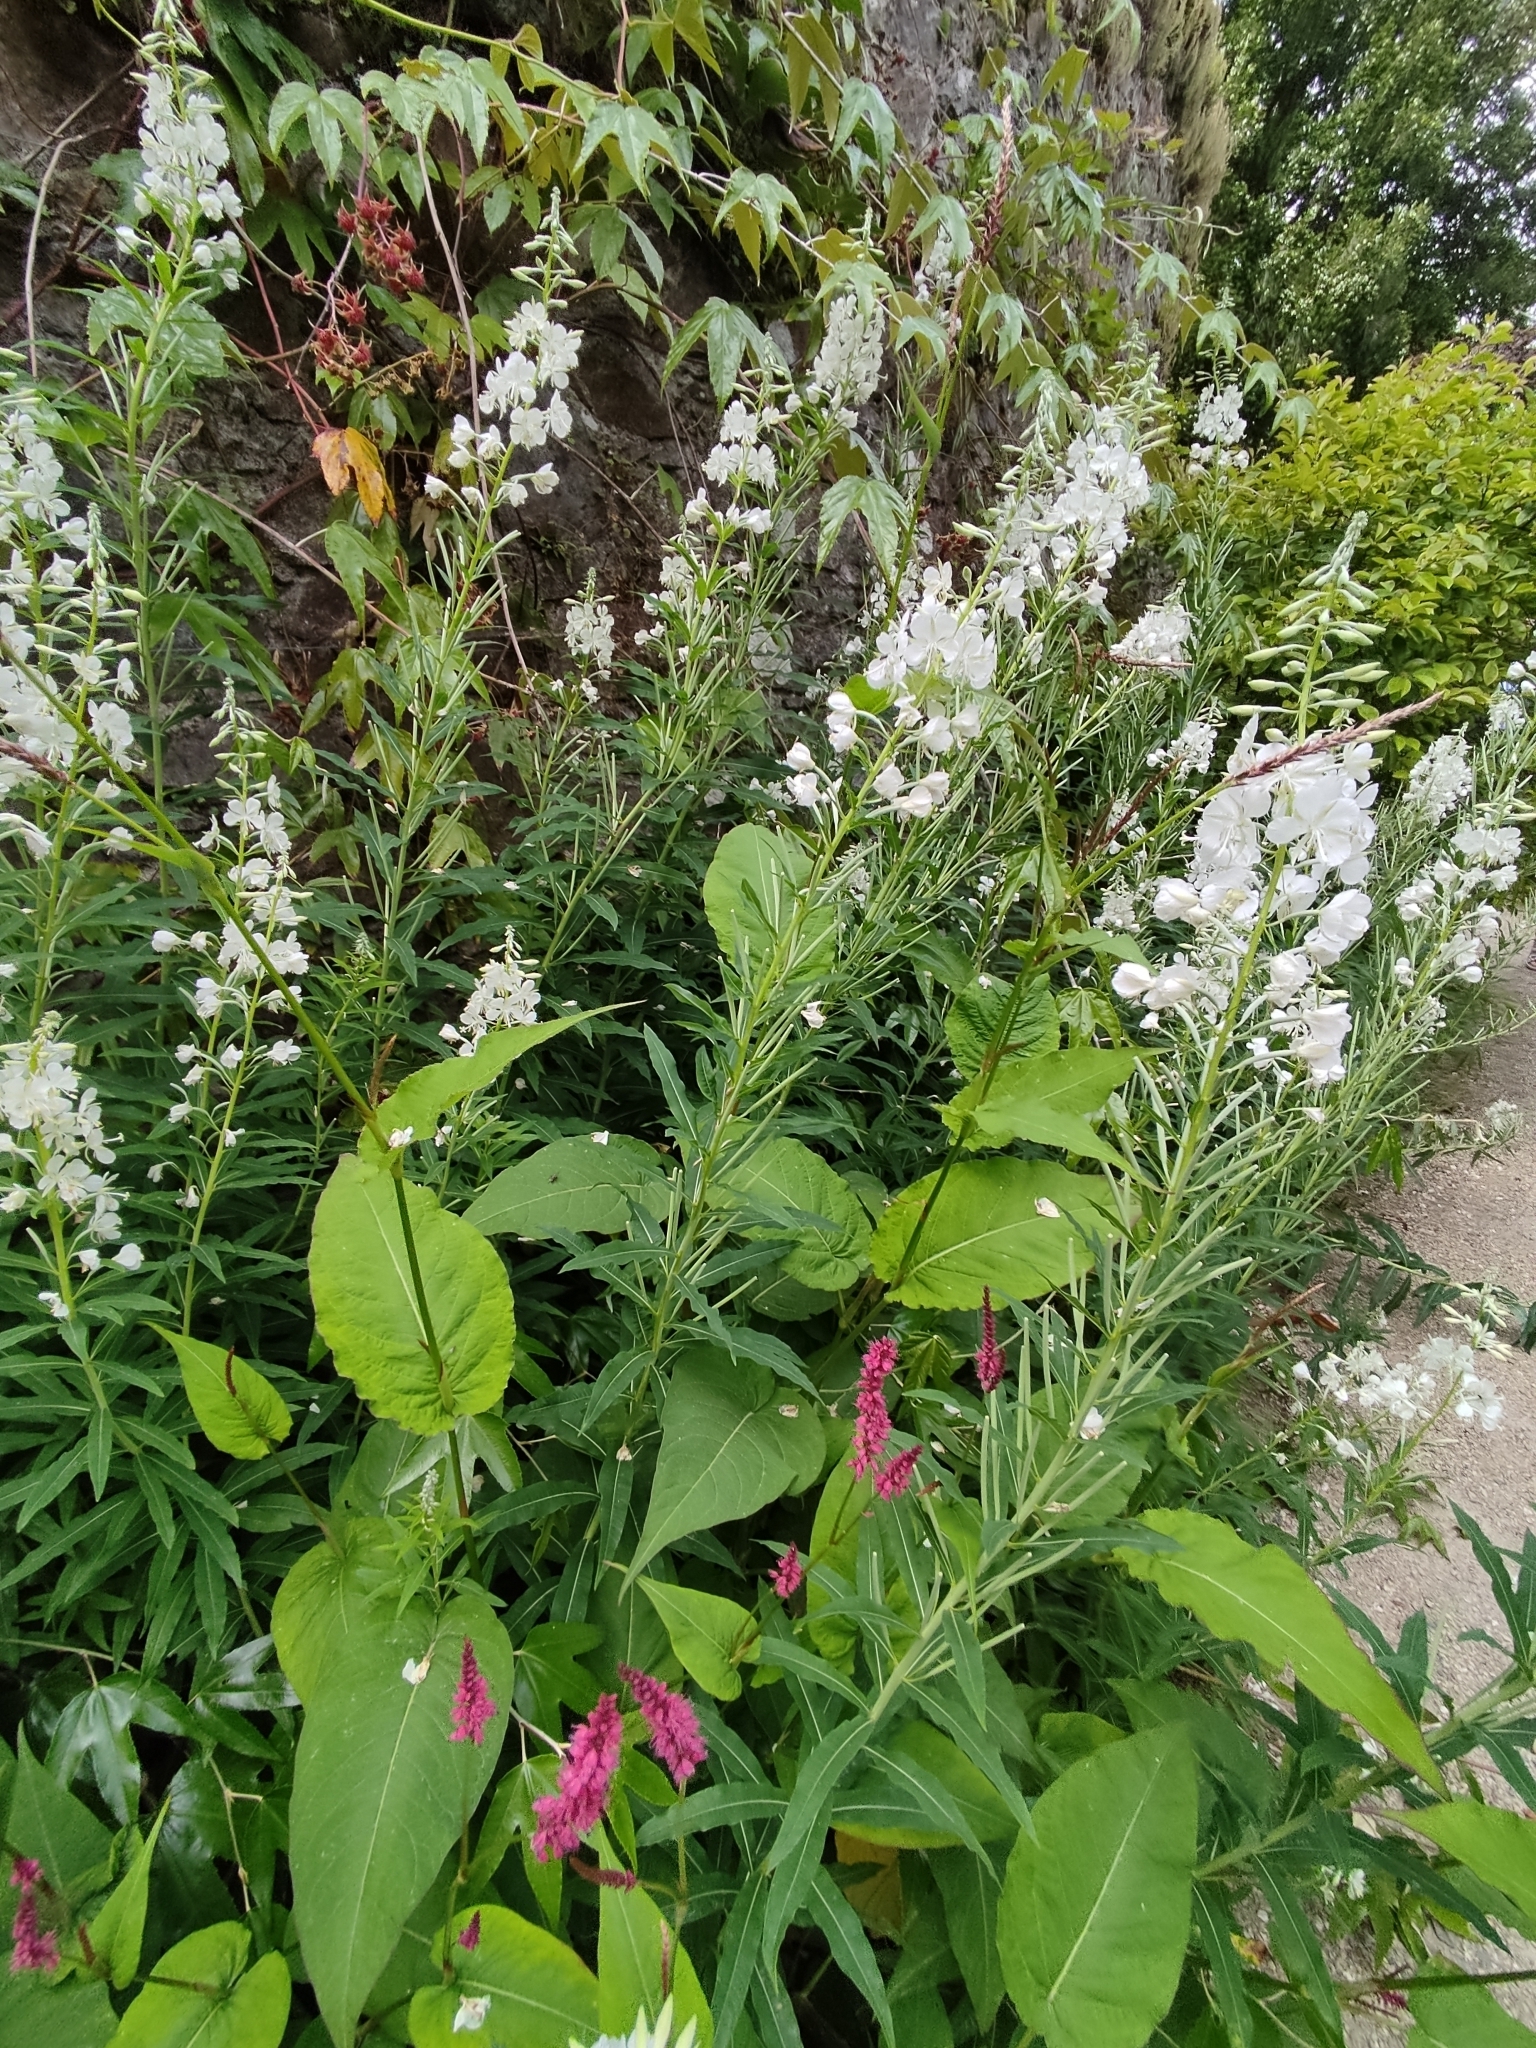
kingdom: Plantae
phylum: Tracheophyta
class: Magnoliopsida
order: Myrtales
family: Onagraceae
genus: Chamaenerion
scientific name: Chamaenerion angustifolium
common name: Fireweed
